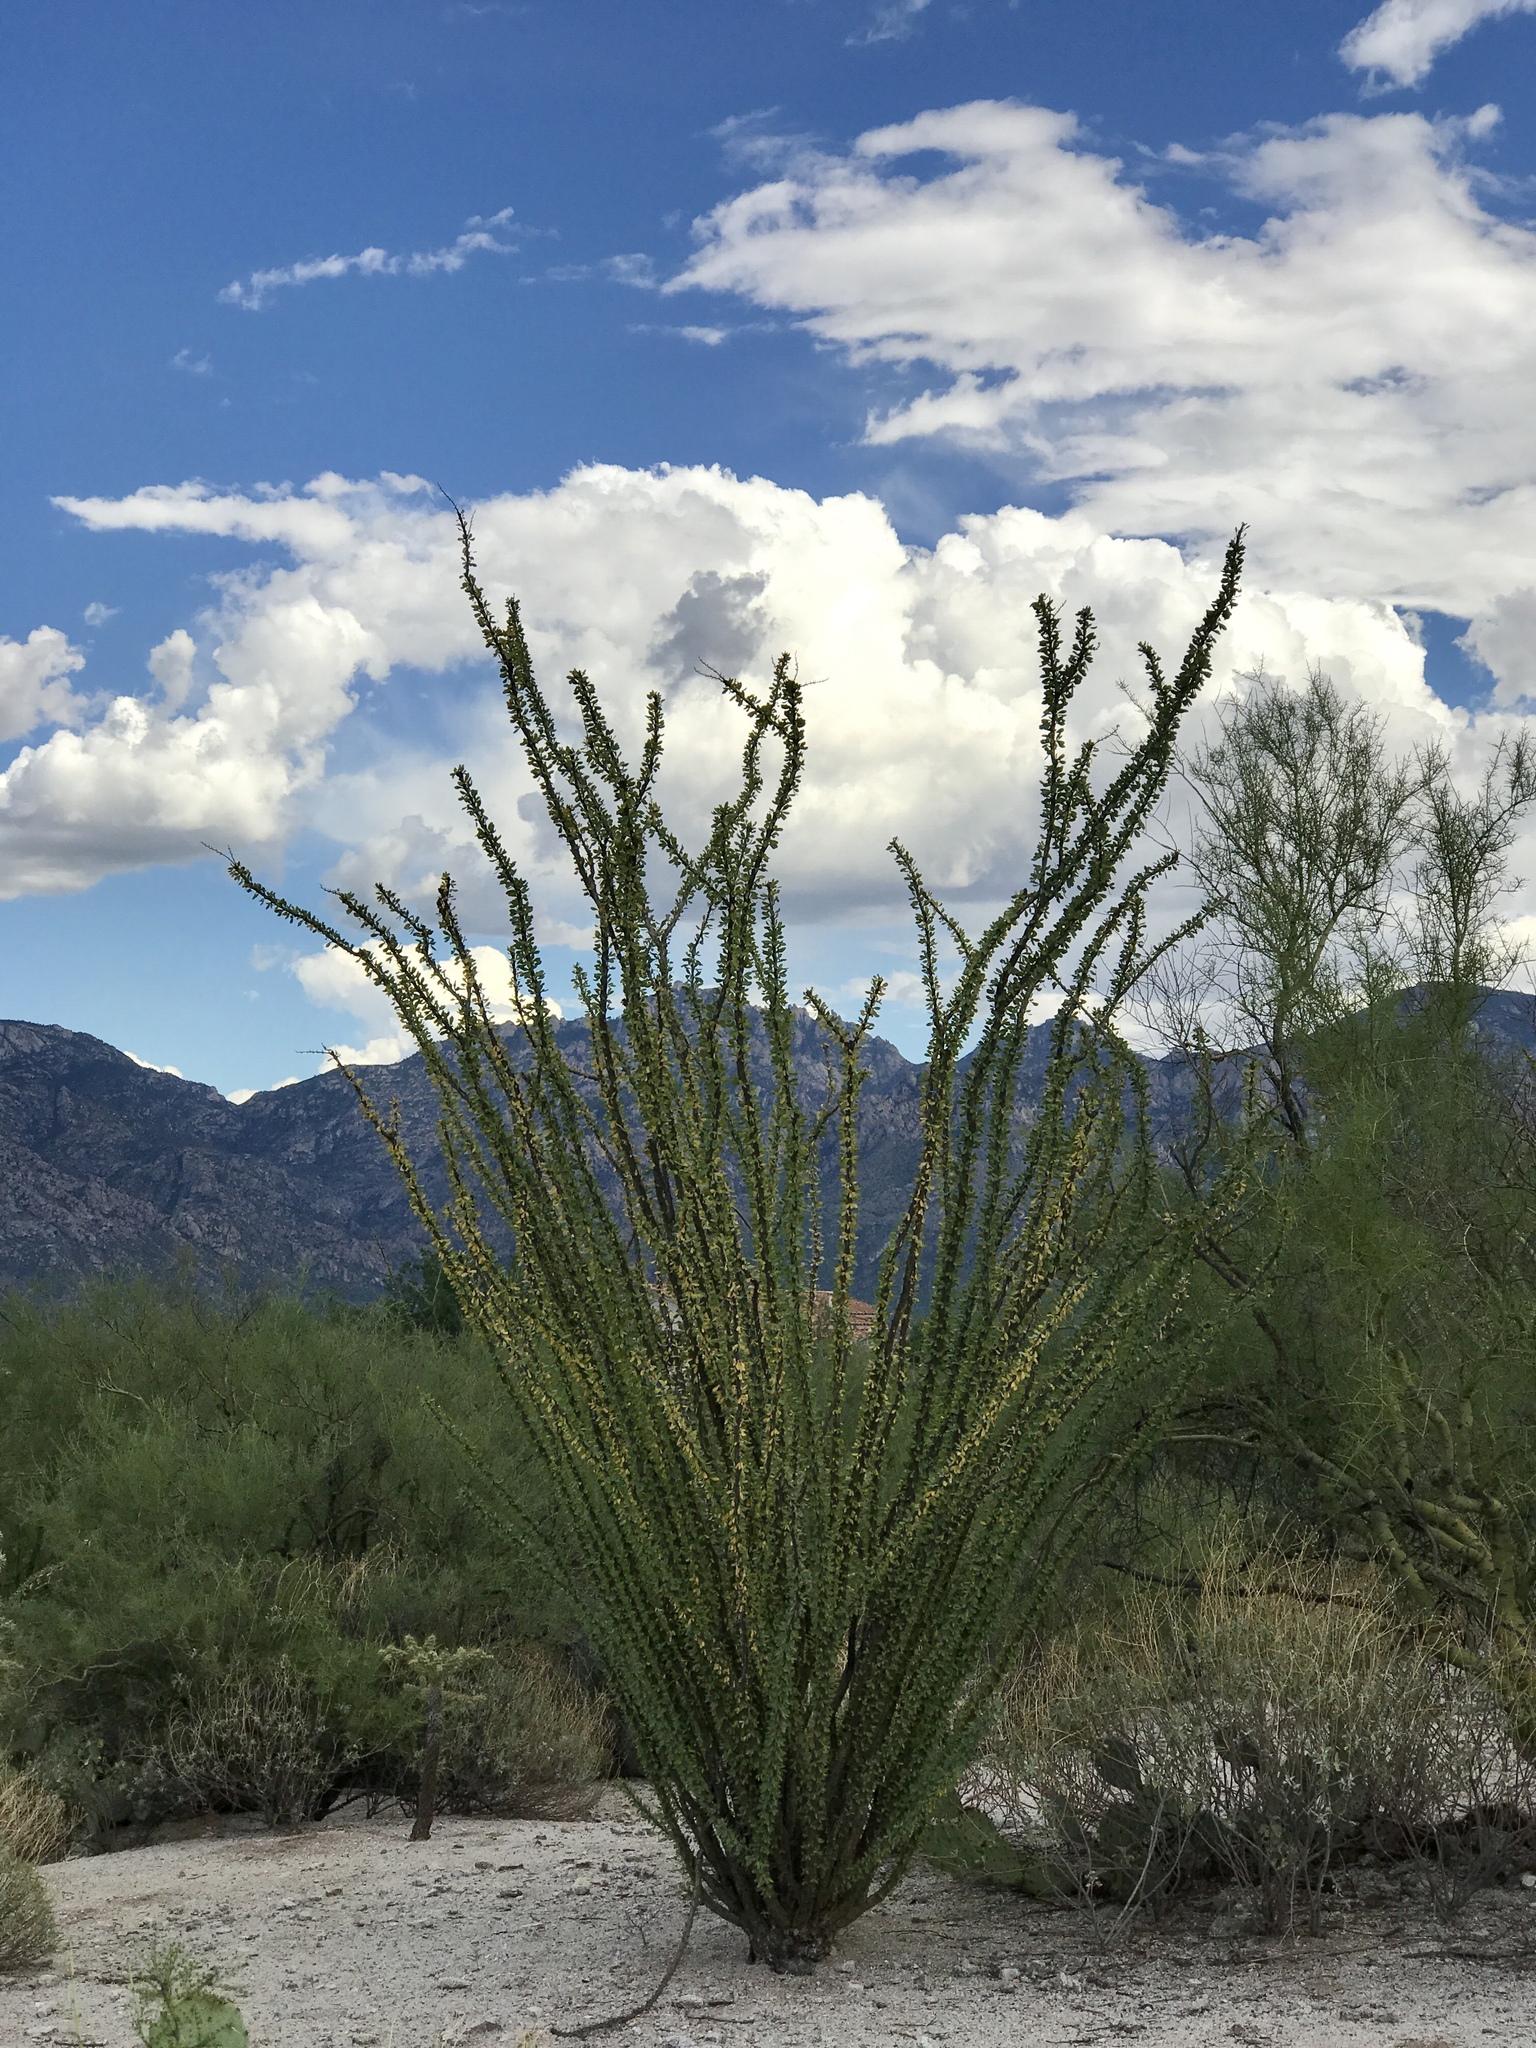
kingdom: Plantae
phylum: Tracheophyta
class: Magnoliopsida
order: Ericales
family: Fouquieriaceae
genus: Fouquieria
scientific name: Fouquieria splendens
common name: Vine-cactus
